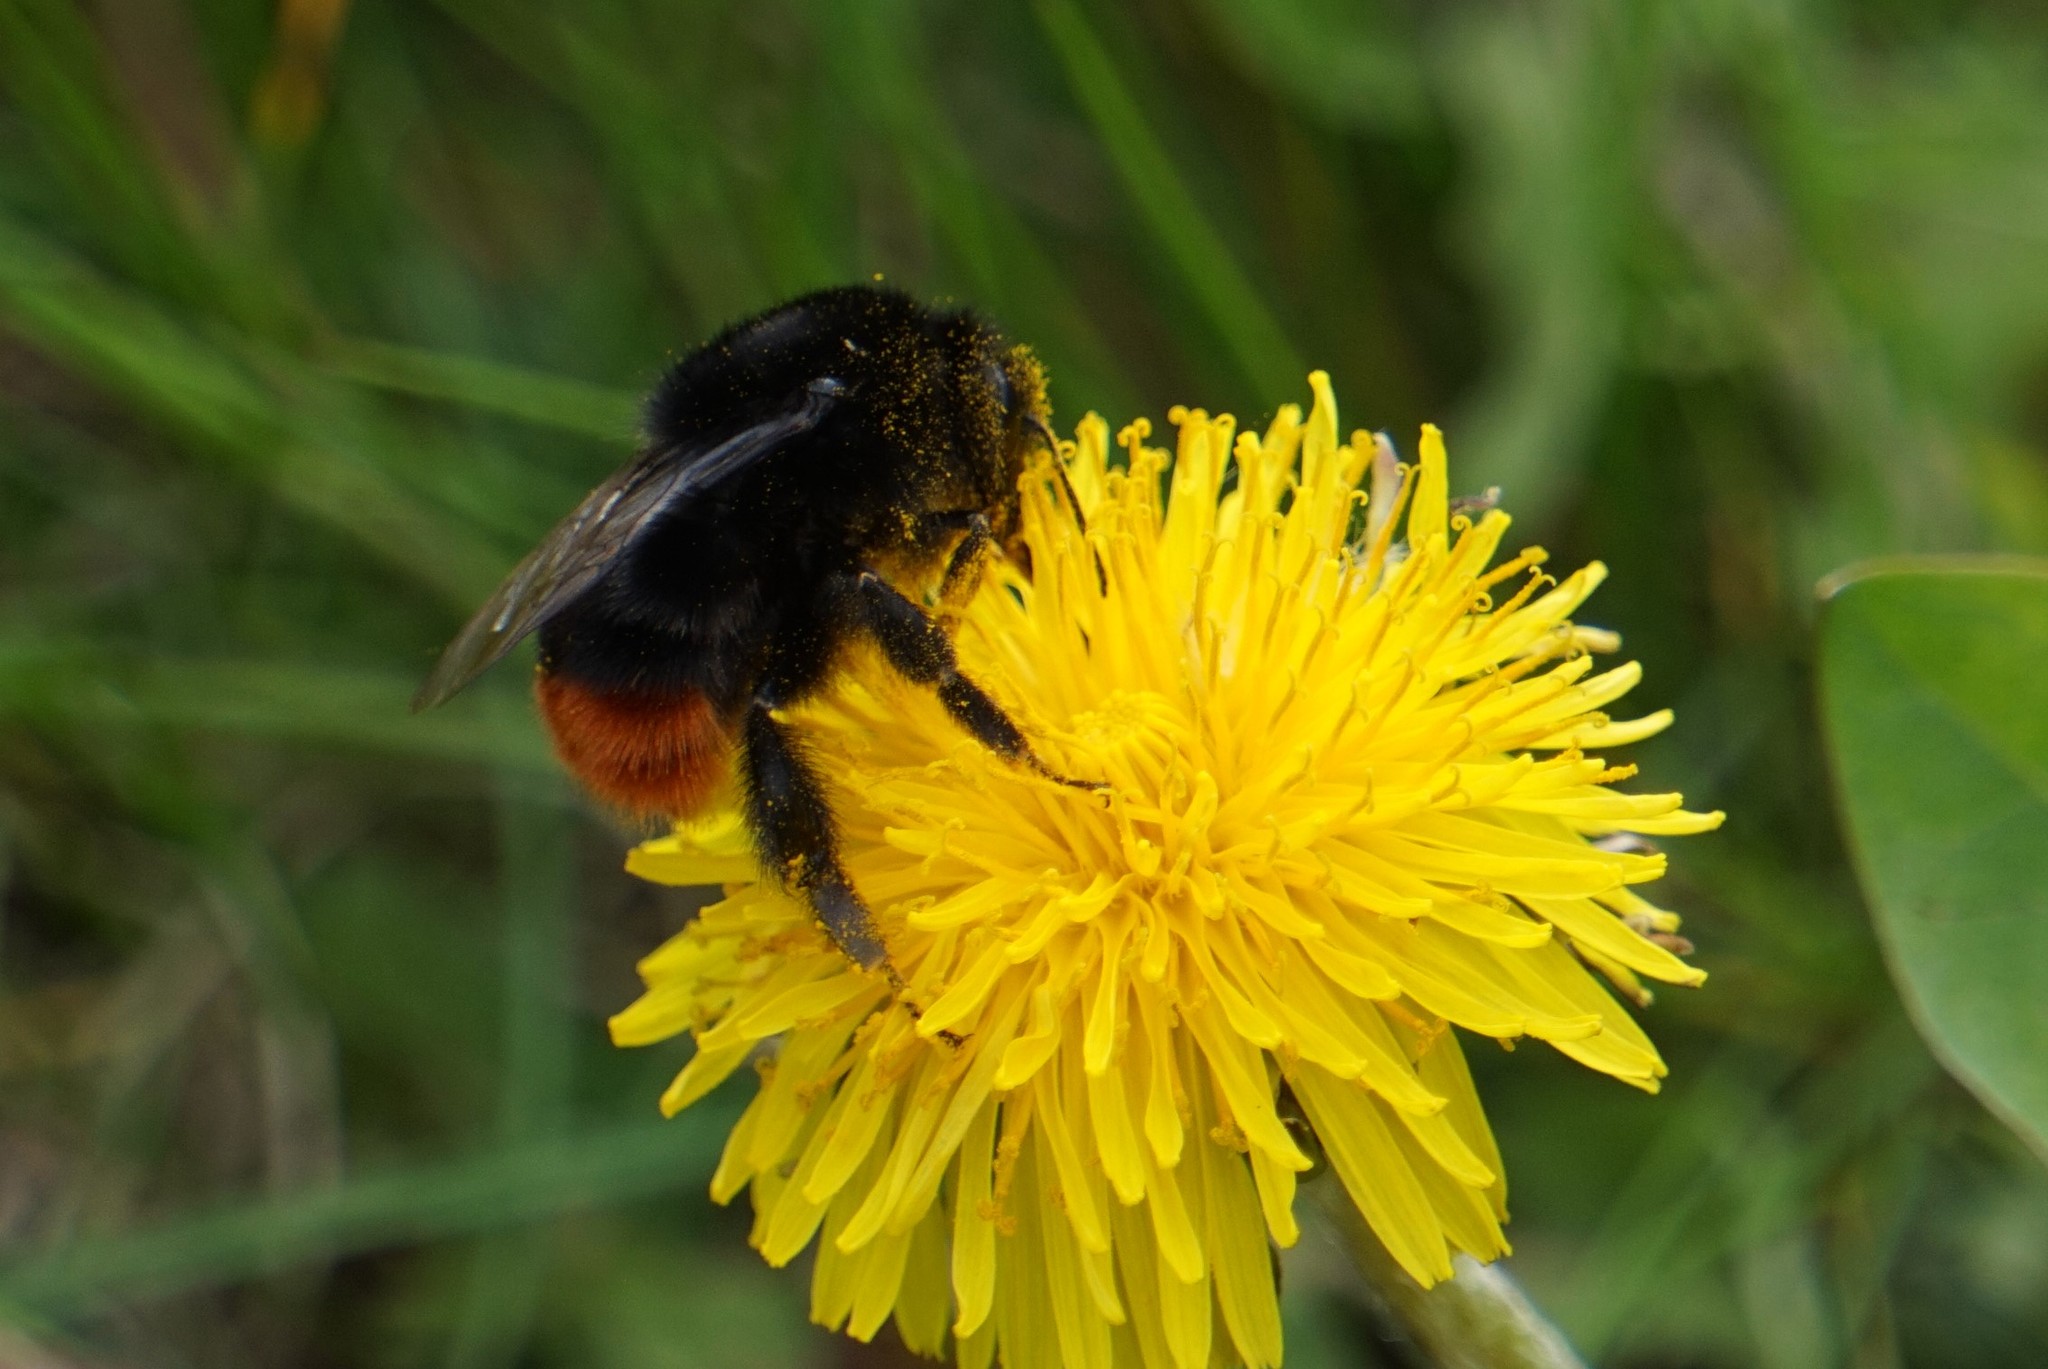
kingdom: Animalia
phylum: Arthropoda
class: Insecta
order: Hymenoptera
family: Apidae
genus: Bombus
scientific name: Bombus lapidarius
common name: Large red-tailed humble-bee
